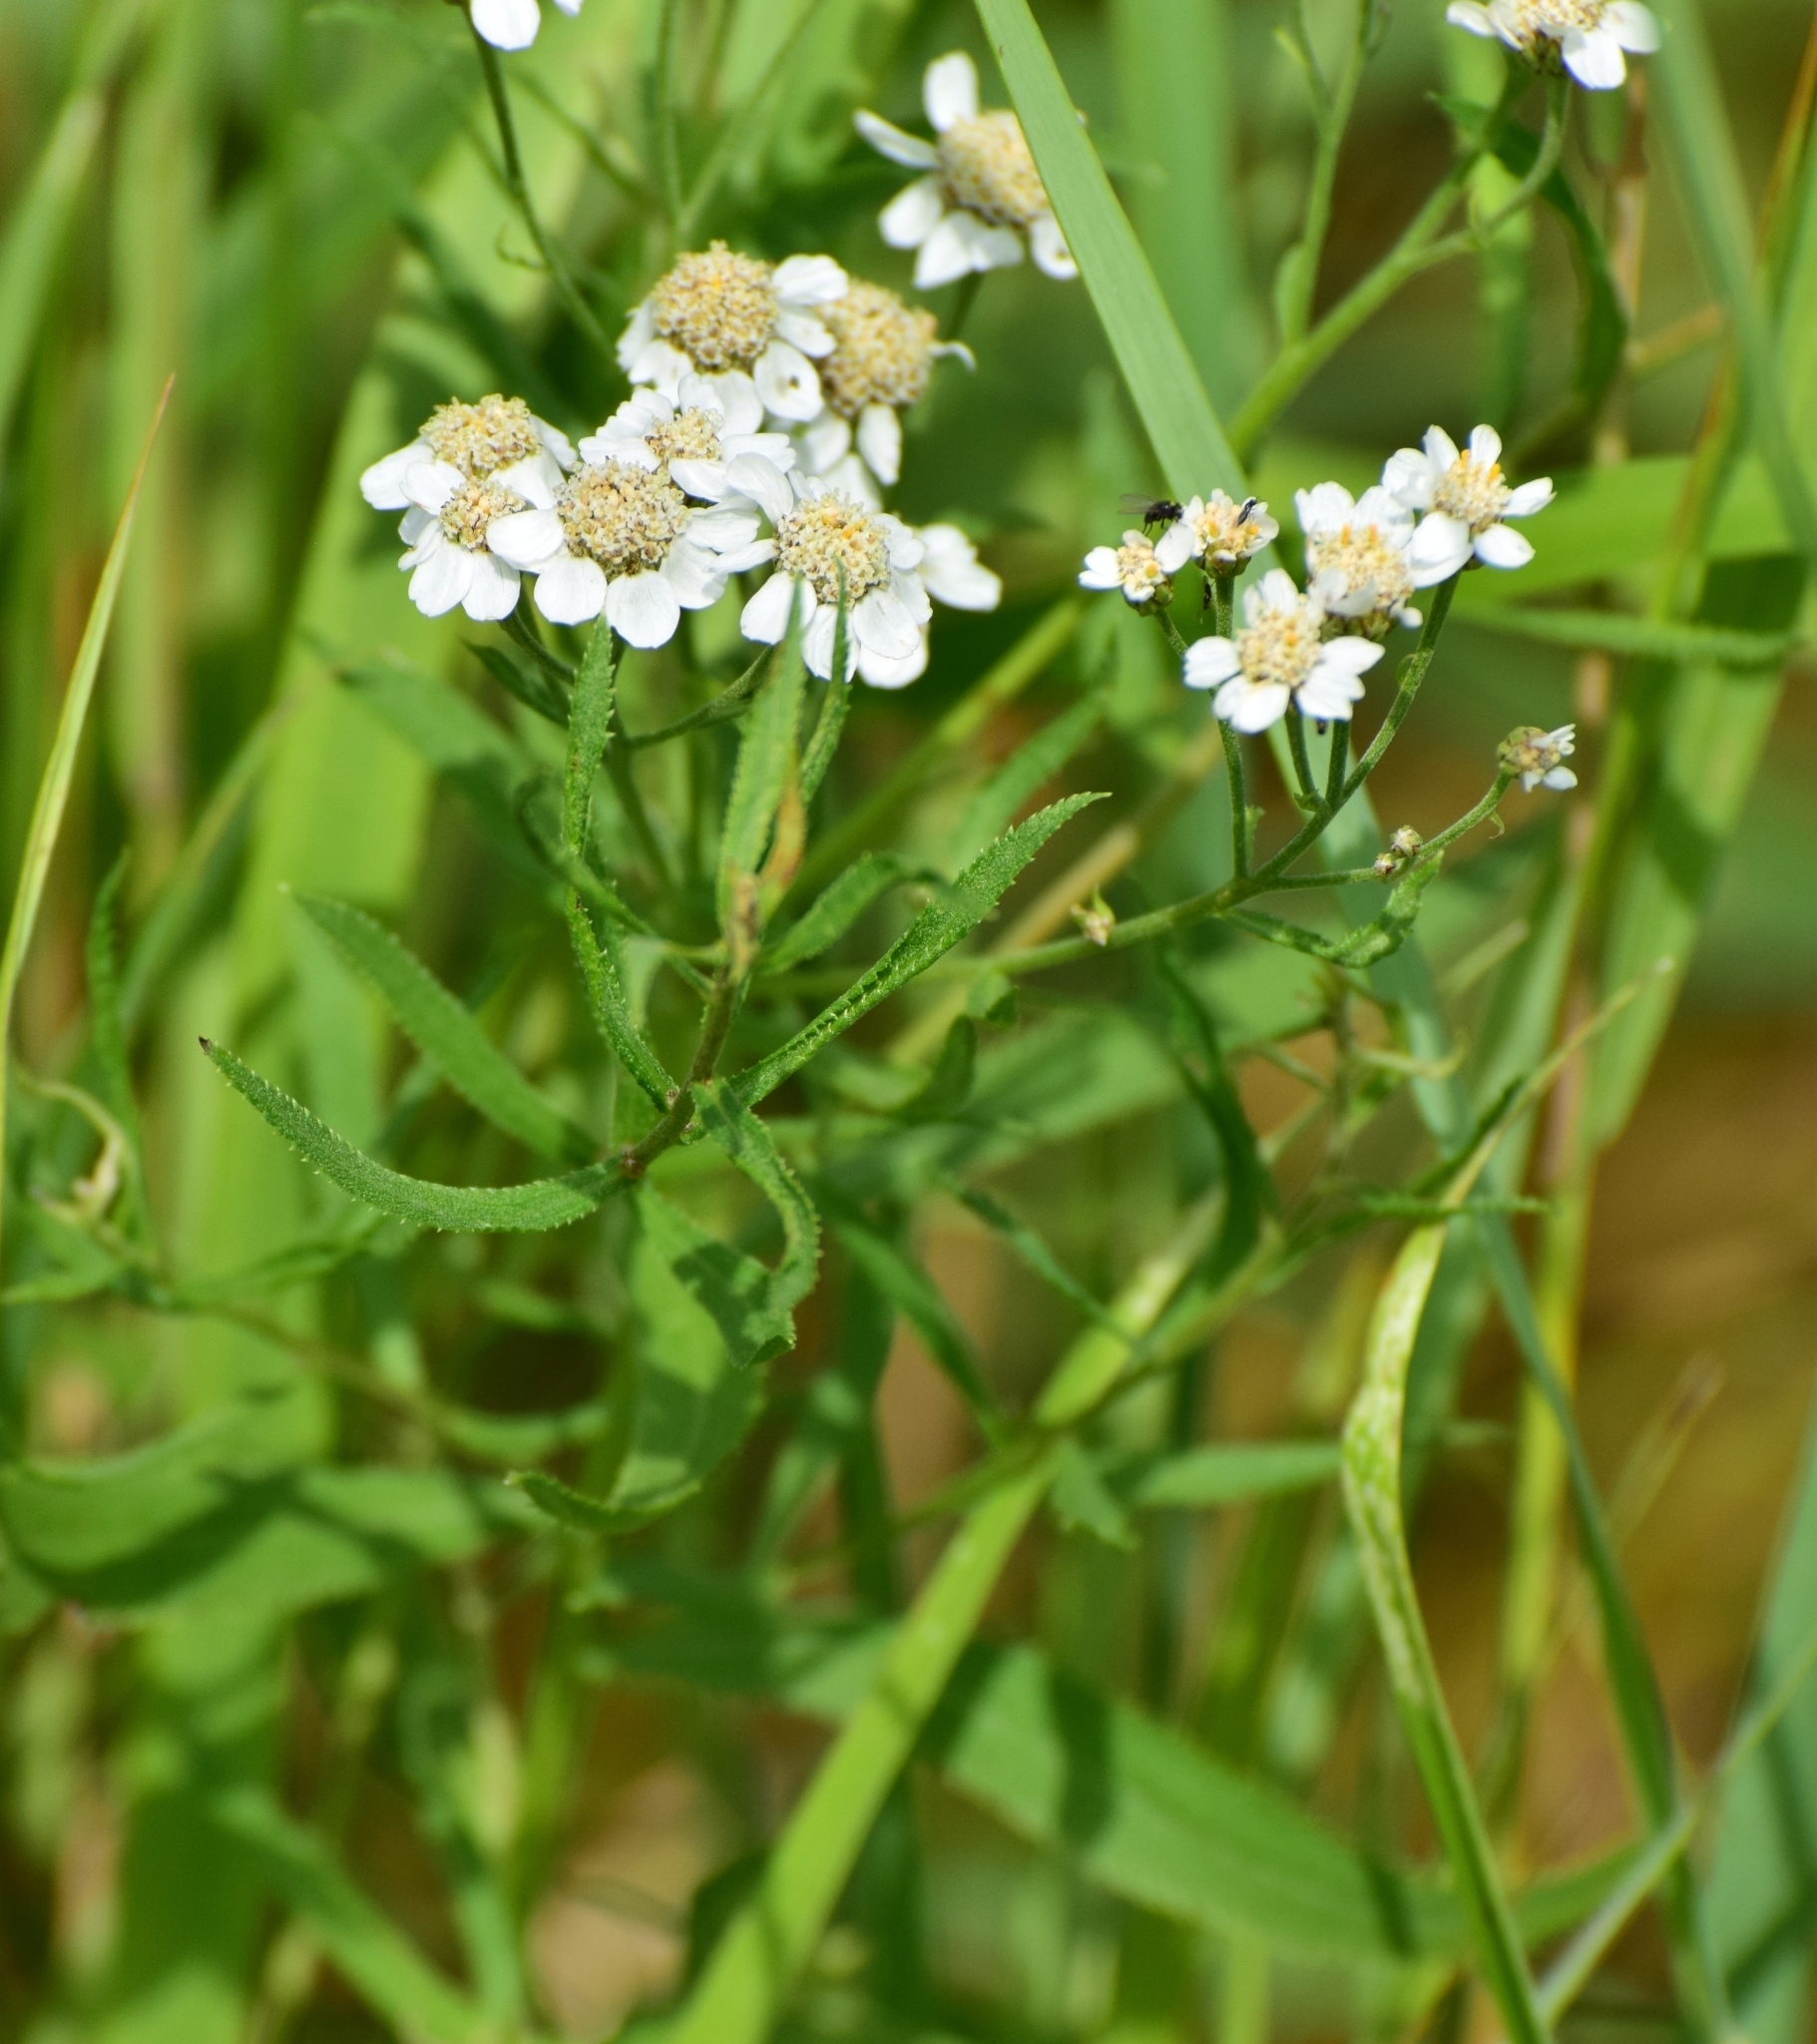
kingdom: Plantae
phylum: Tracheophyta
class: Magnoliopsida
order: Asterales
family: Asteraceae
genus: Achillea
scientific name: Achillea ptarmica
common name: Sneezeweed
